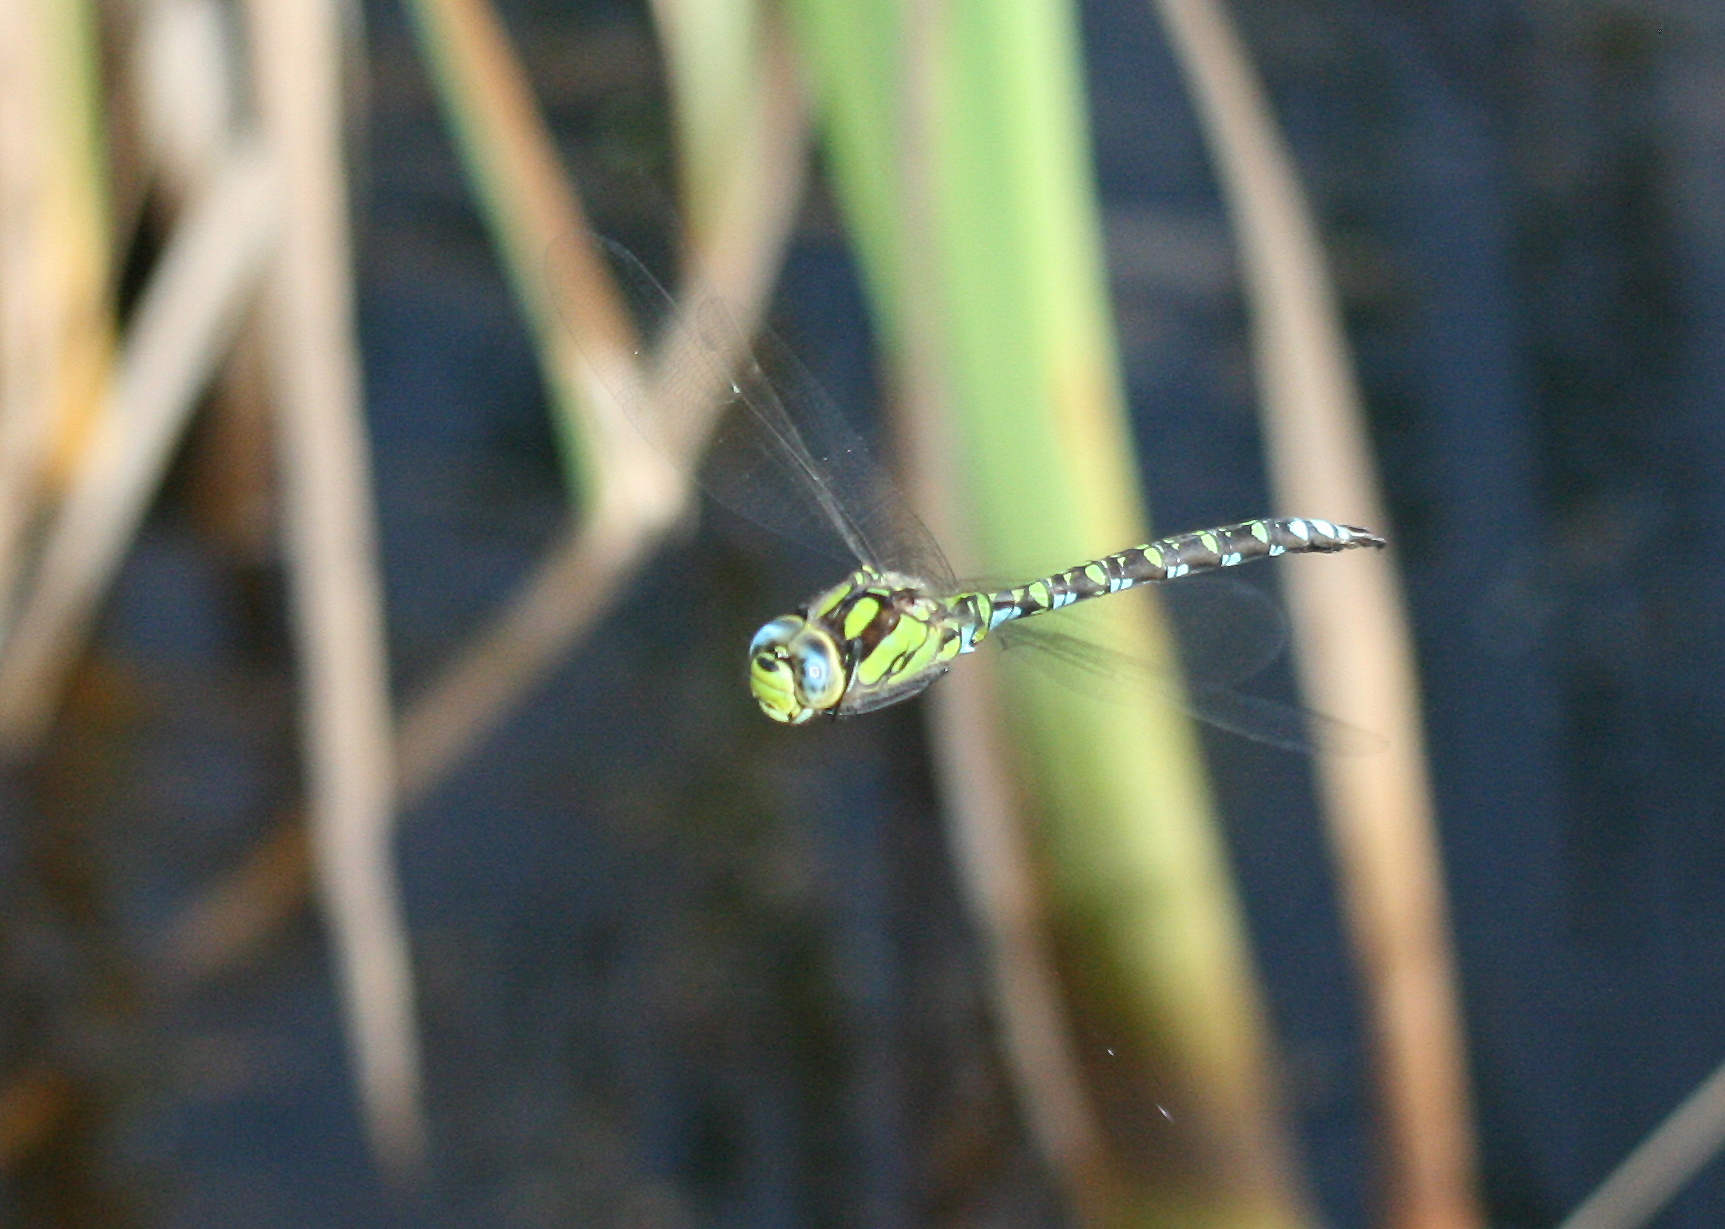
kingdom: Animalia
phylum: Arthropoda
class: Insecta
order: Odonata
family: Aeshnidae
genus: Aeshna
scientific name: Aeshna cyanea
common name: Southern hawker
